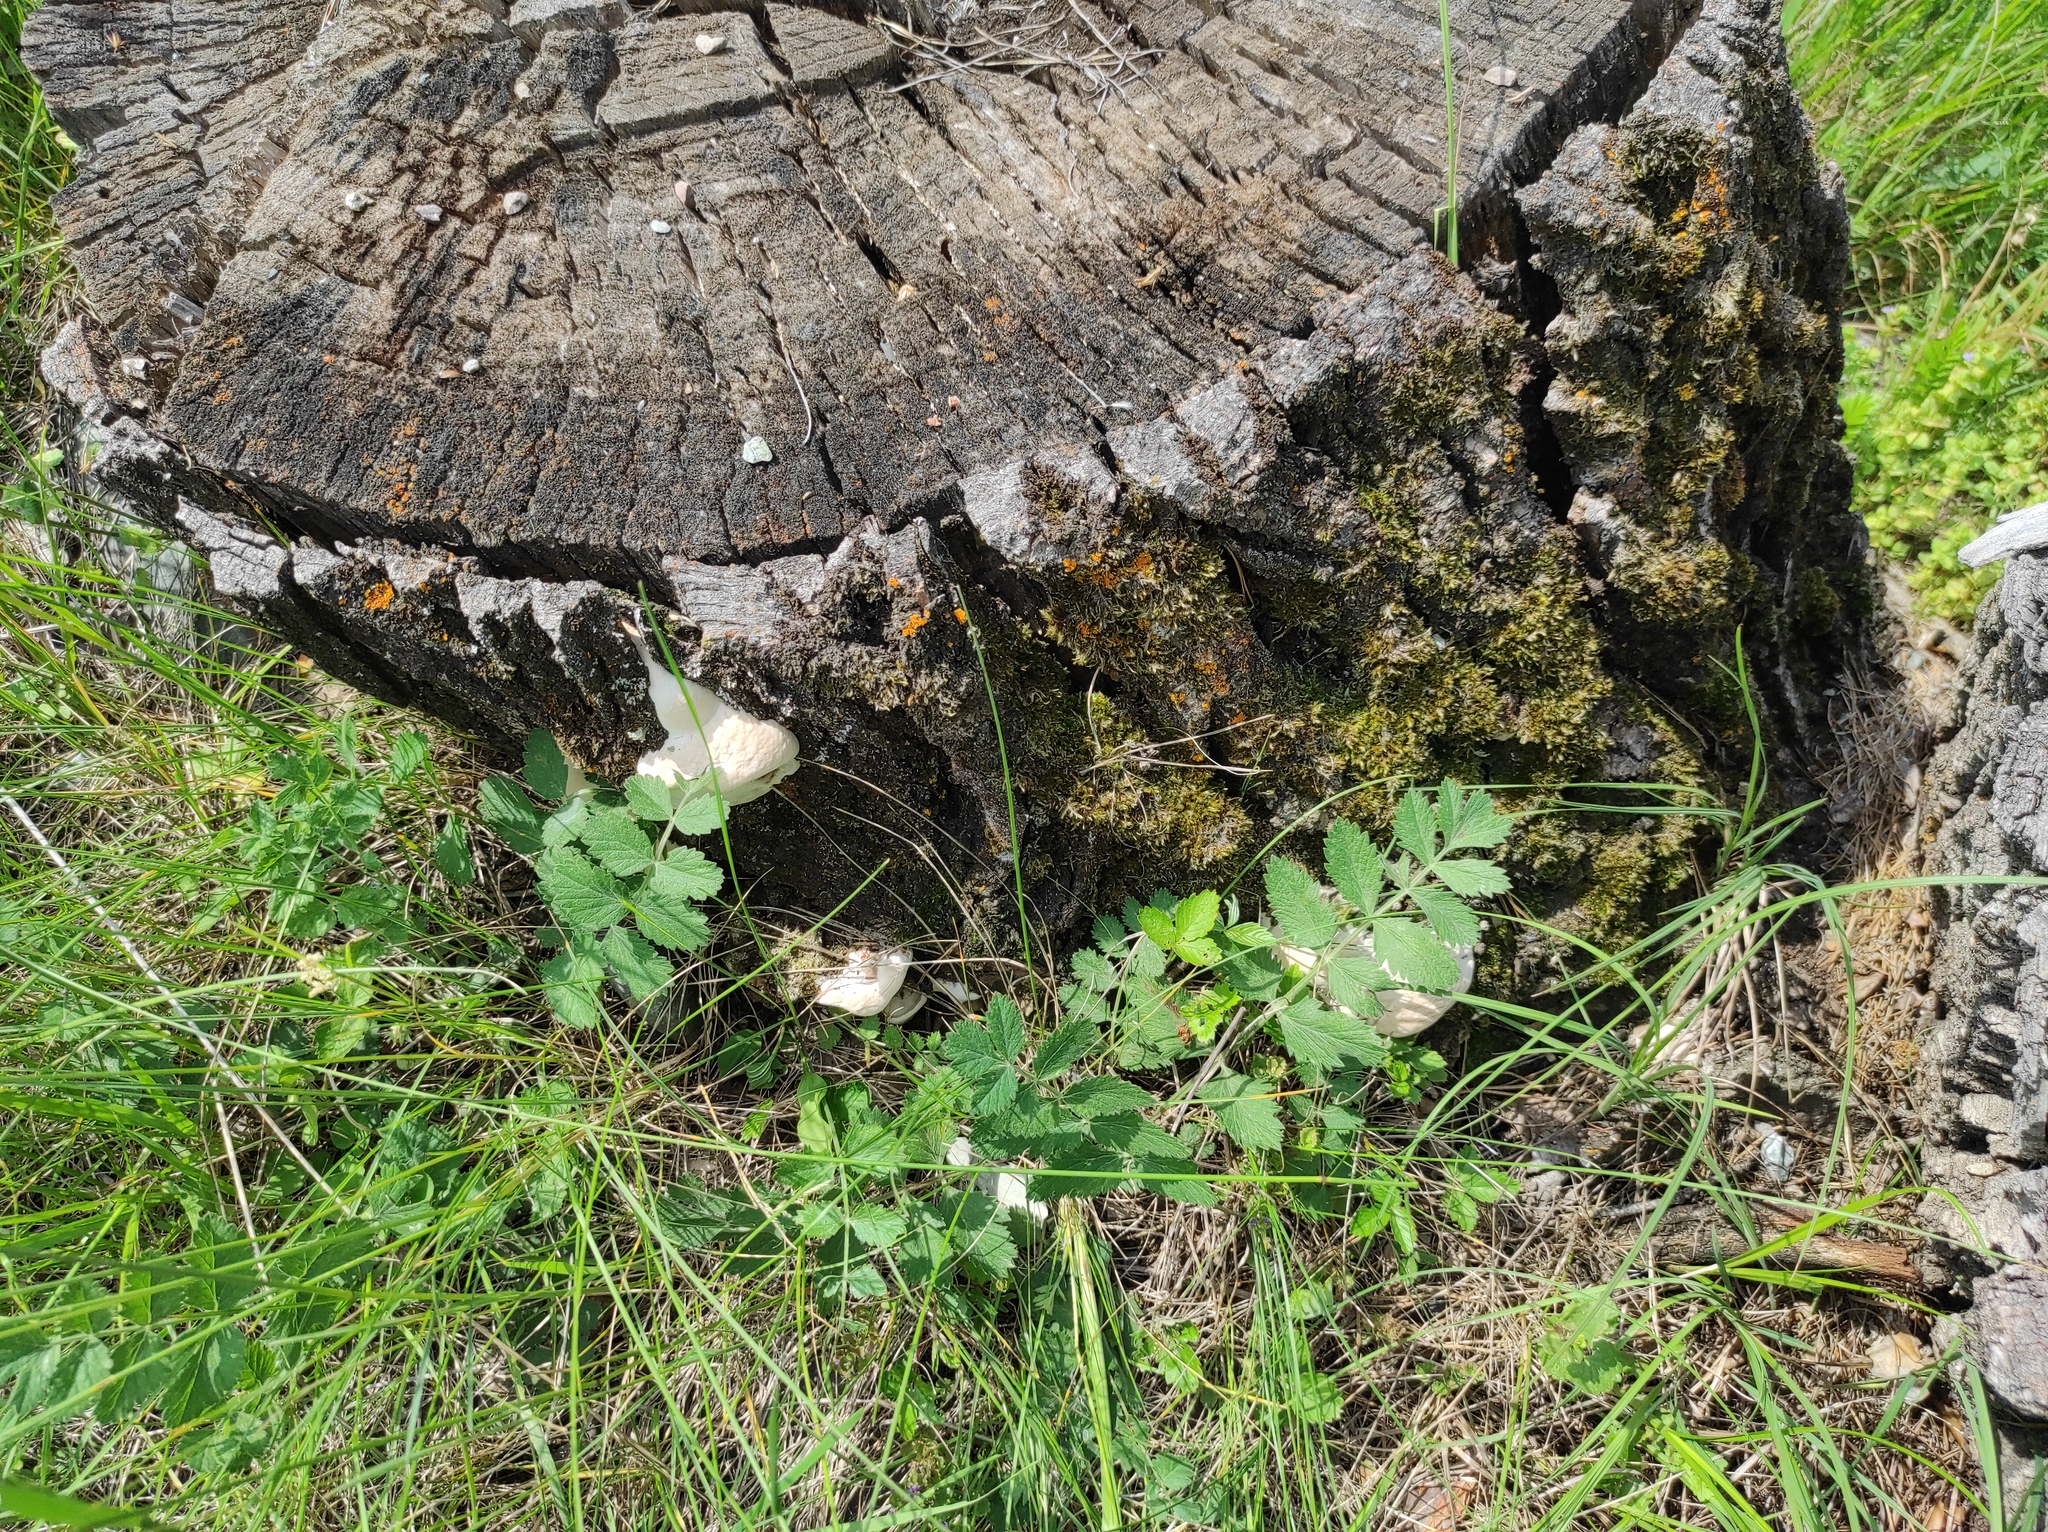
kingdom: Plantae
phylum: Tracheophyta
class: Magnoliopsida
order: Apiales
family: Apiaceae
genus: Pimpinella
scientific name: Pimpinella saxifraga
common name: Burnet-saxifrage
